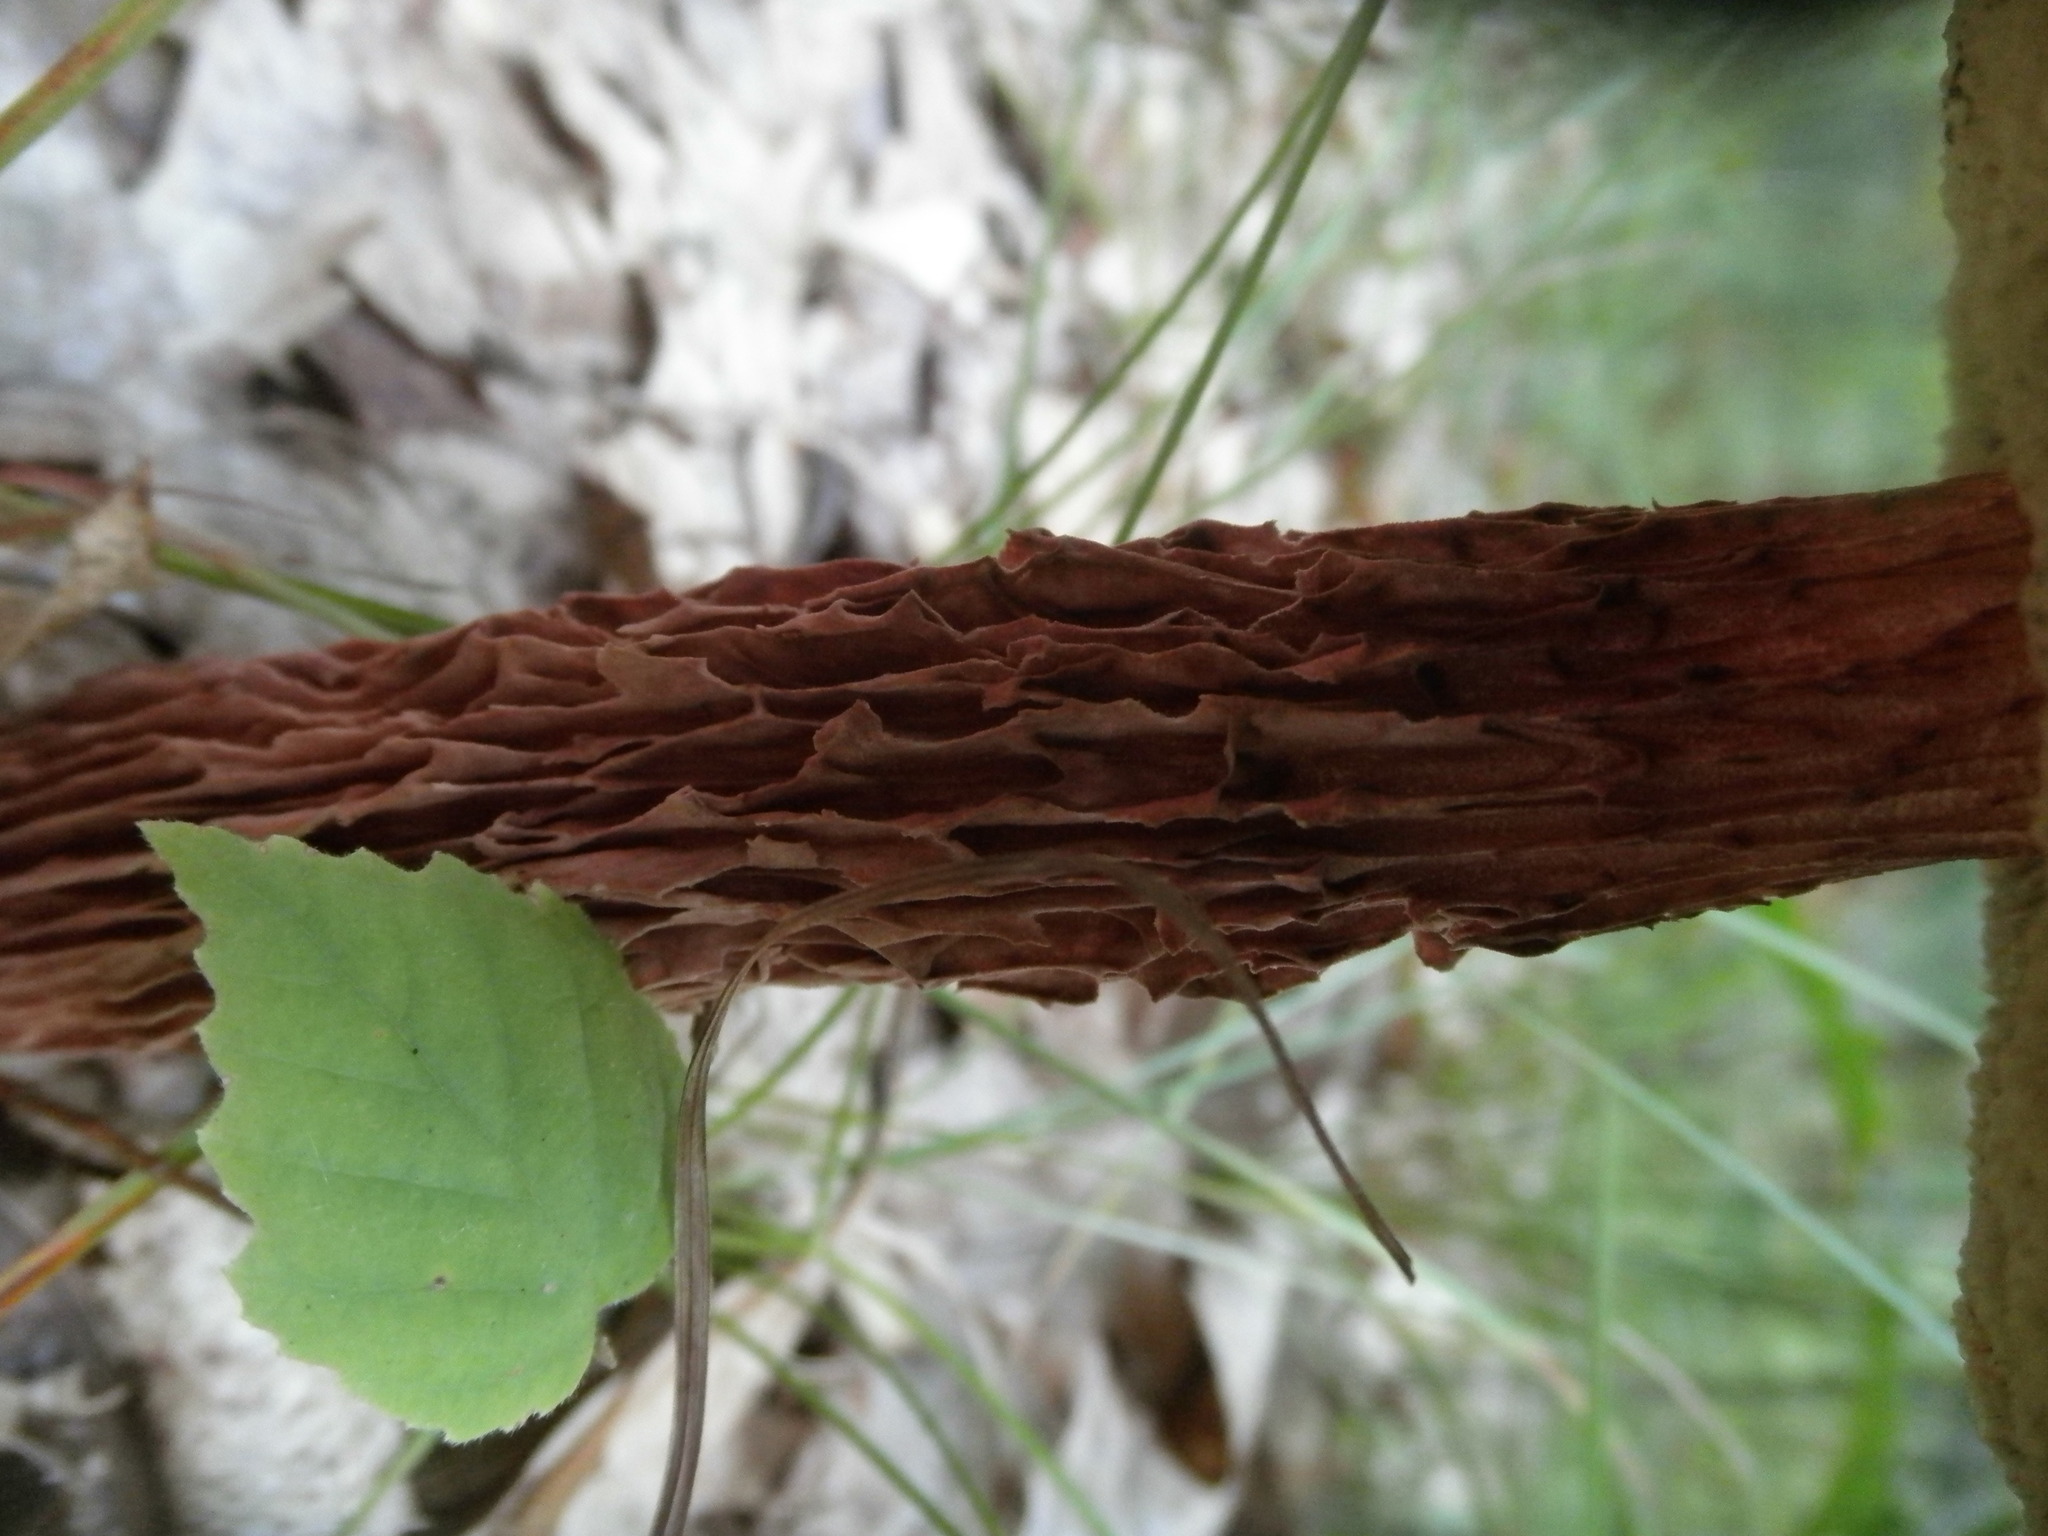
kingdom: Fungi
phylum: Basidiomycota
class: Agaricomycetes
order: Boletales
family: Boletaceae
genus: Aureoboletus
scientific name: Aureoboletus russellii
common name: Russell's bolete
